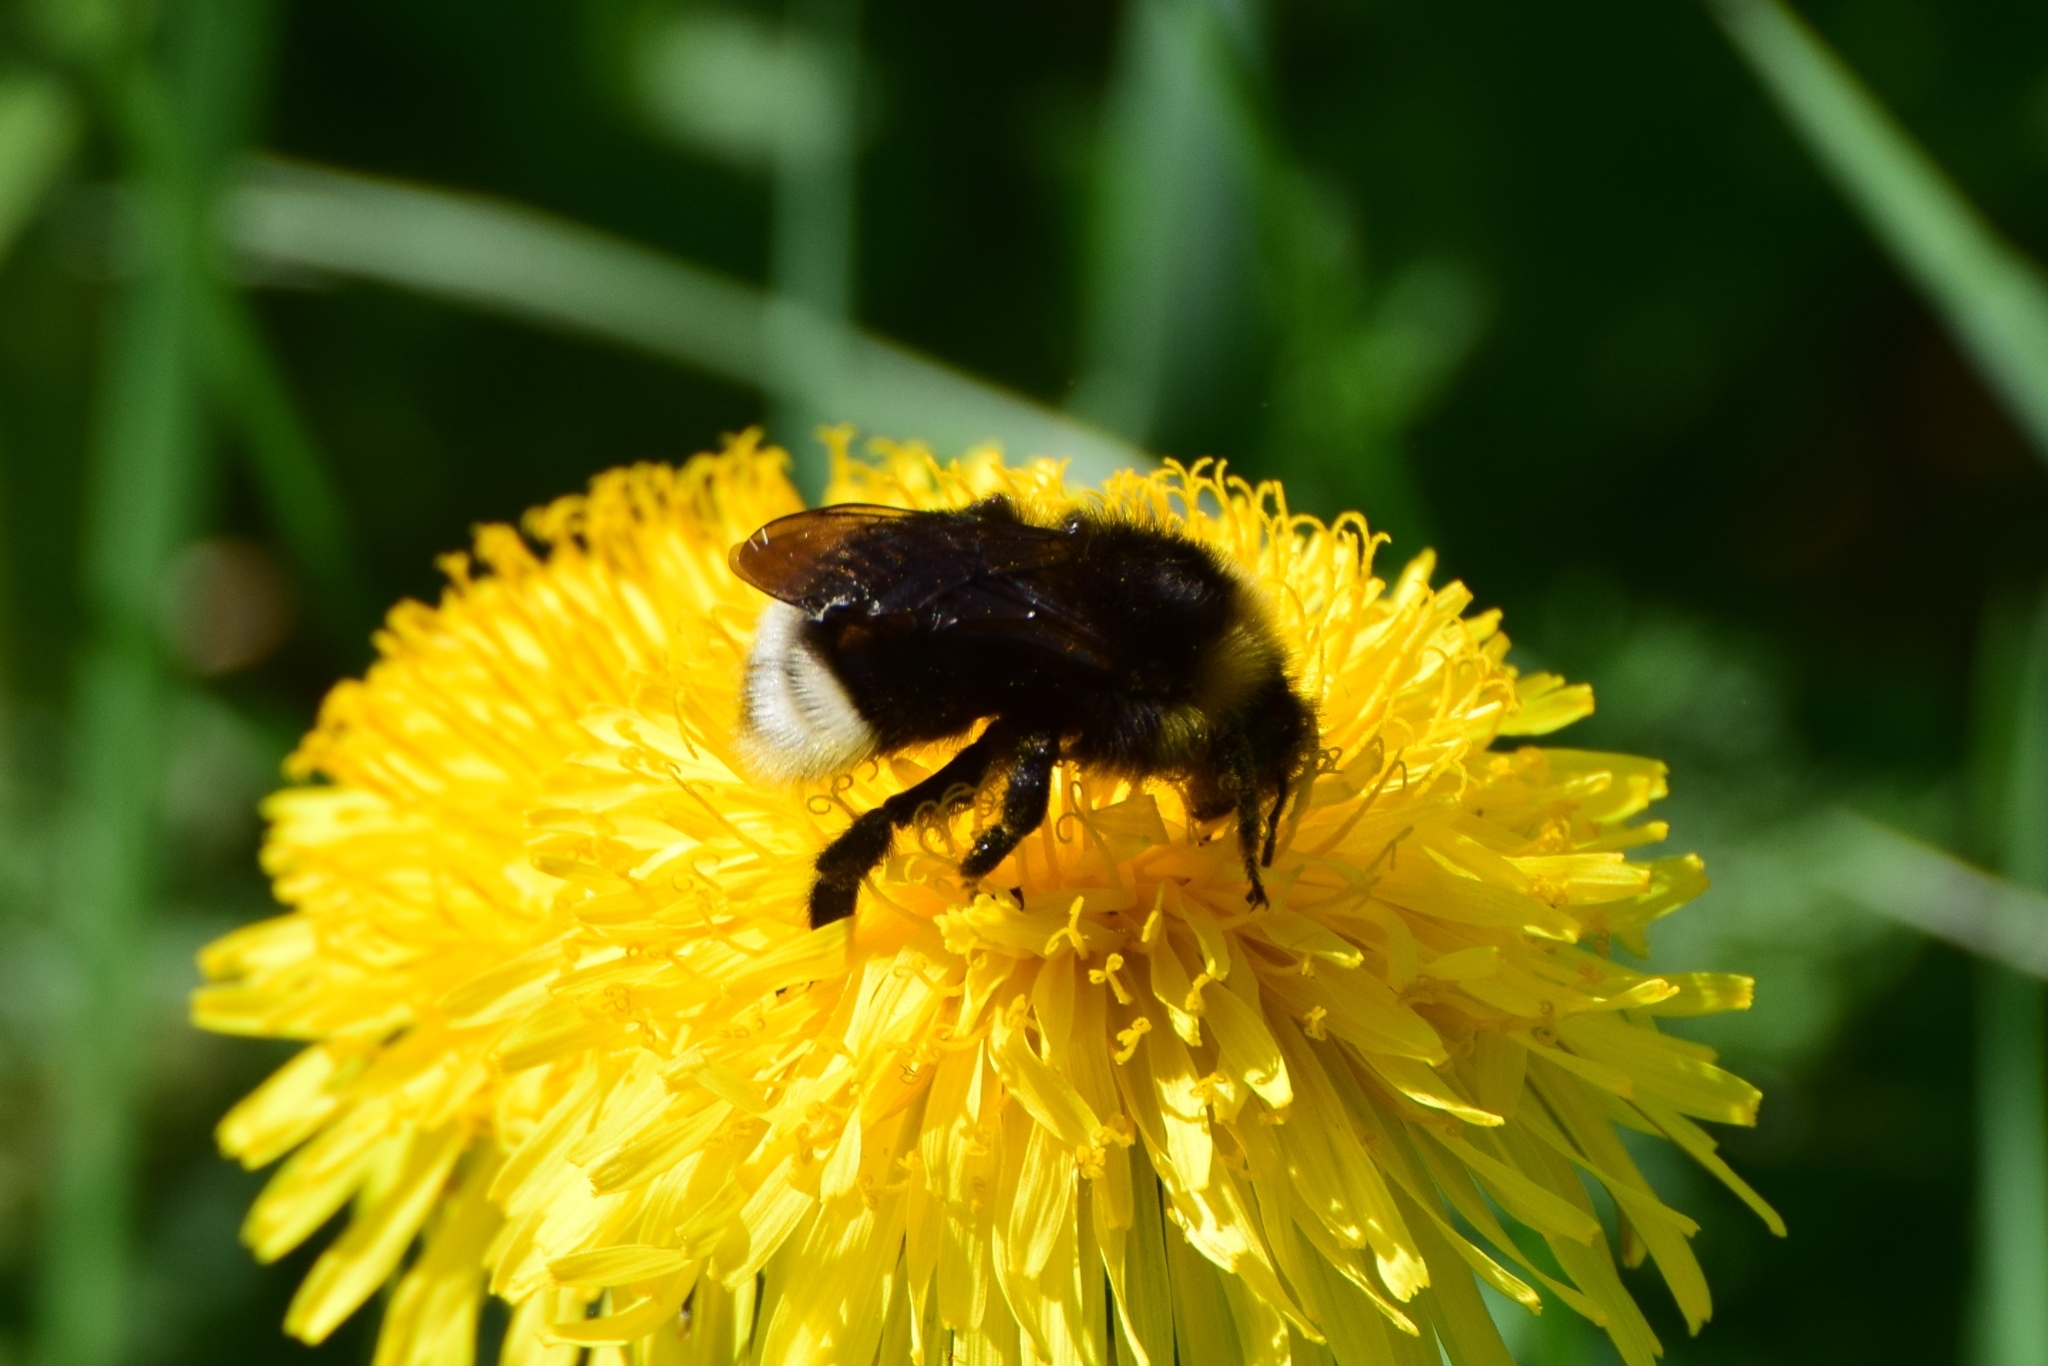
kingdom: Animalia
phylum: Arthropoda
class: Insecta
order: Hymenoptera
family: Apidae
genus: Bombus
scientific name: Bombus bohemicus
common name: Gypsy cuckoo bee
